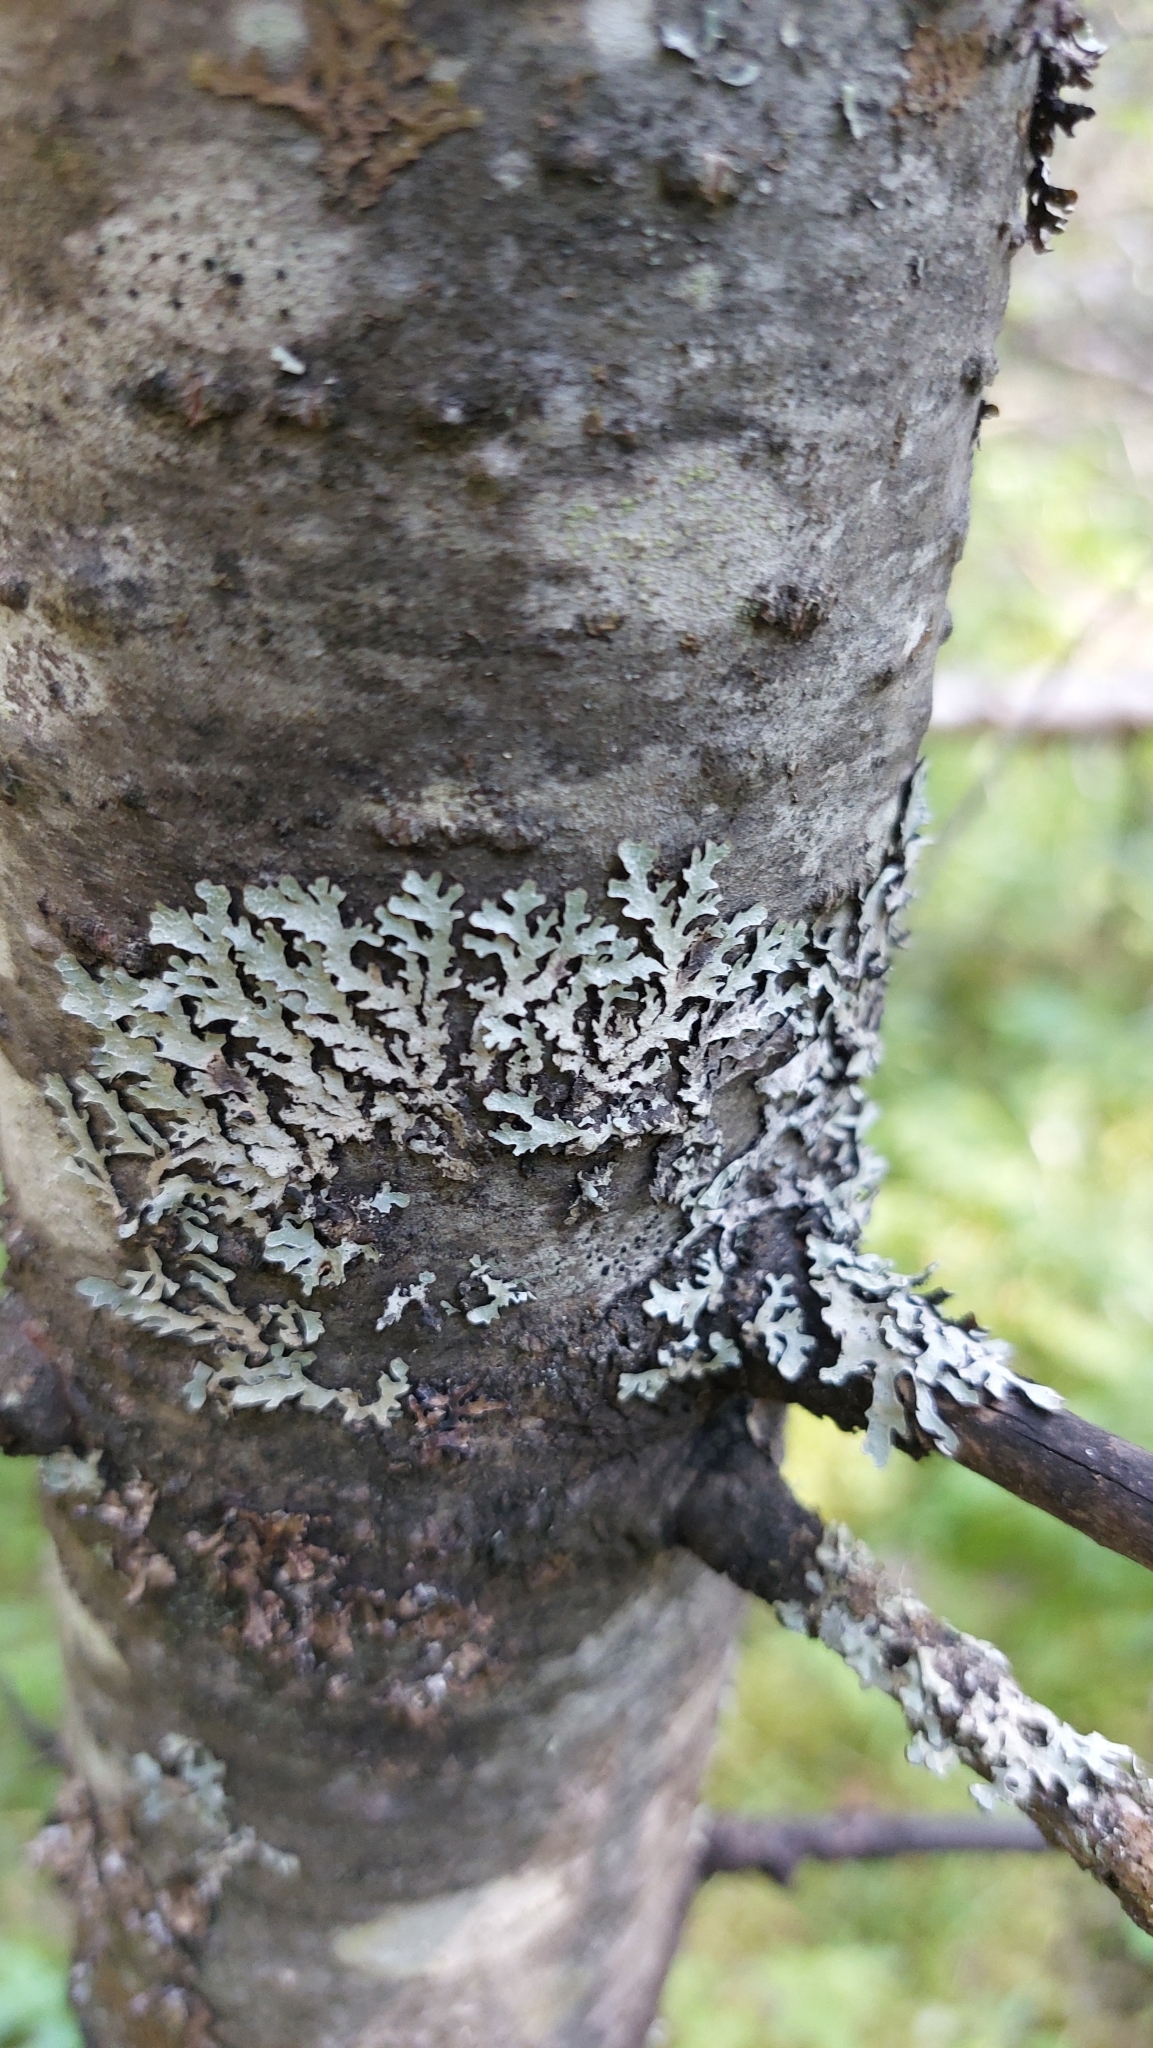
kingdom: Fungi
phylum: Ascomycota
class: Lecanoromycetes
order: Lecanorales
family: Parmeliaceae
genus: Parmelia
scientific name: Parmelia sulcata
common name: Netted shield lichen
